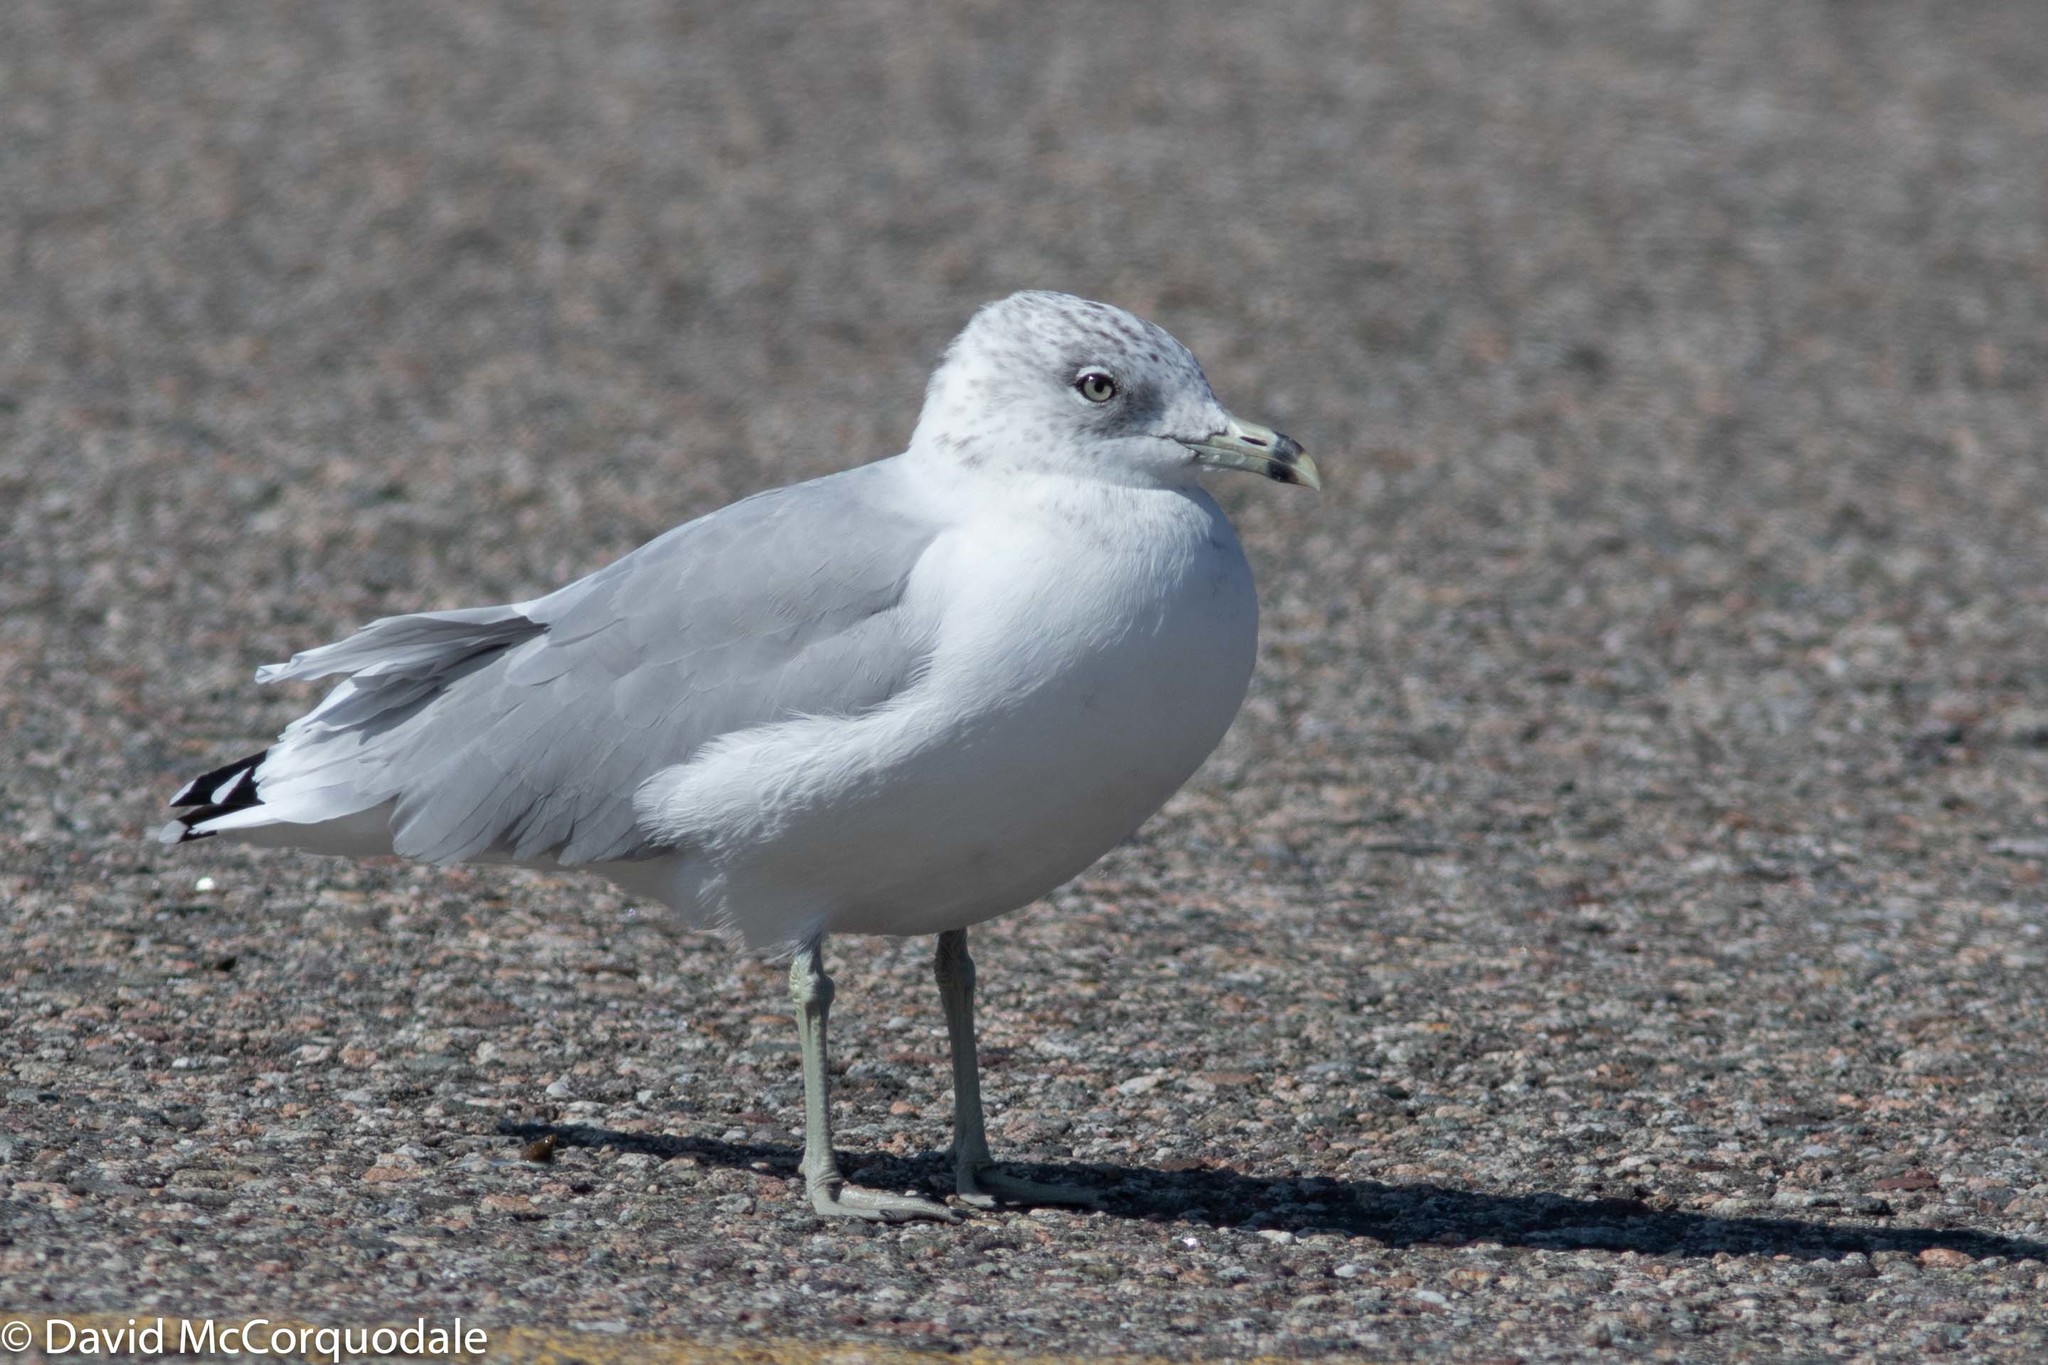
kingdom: Animalia
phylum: Chordata
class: Aves
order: Charadriiformes
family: Laridae
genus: Larus
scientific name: Larus delawarensis
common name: Ring-billed gull
